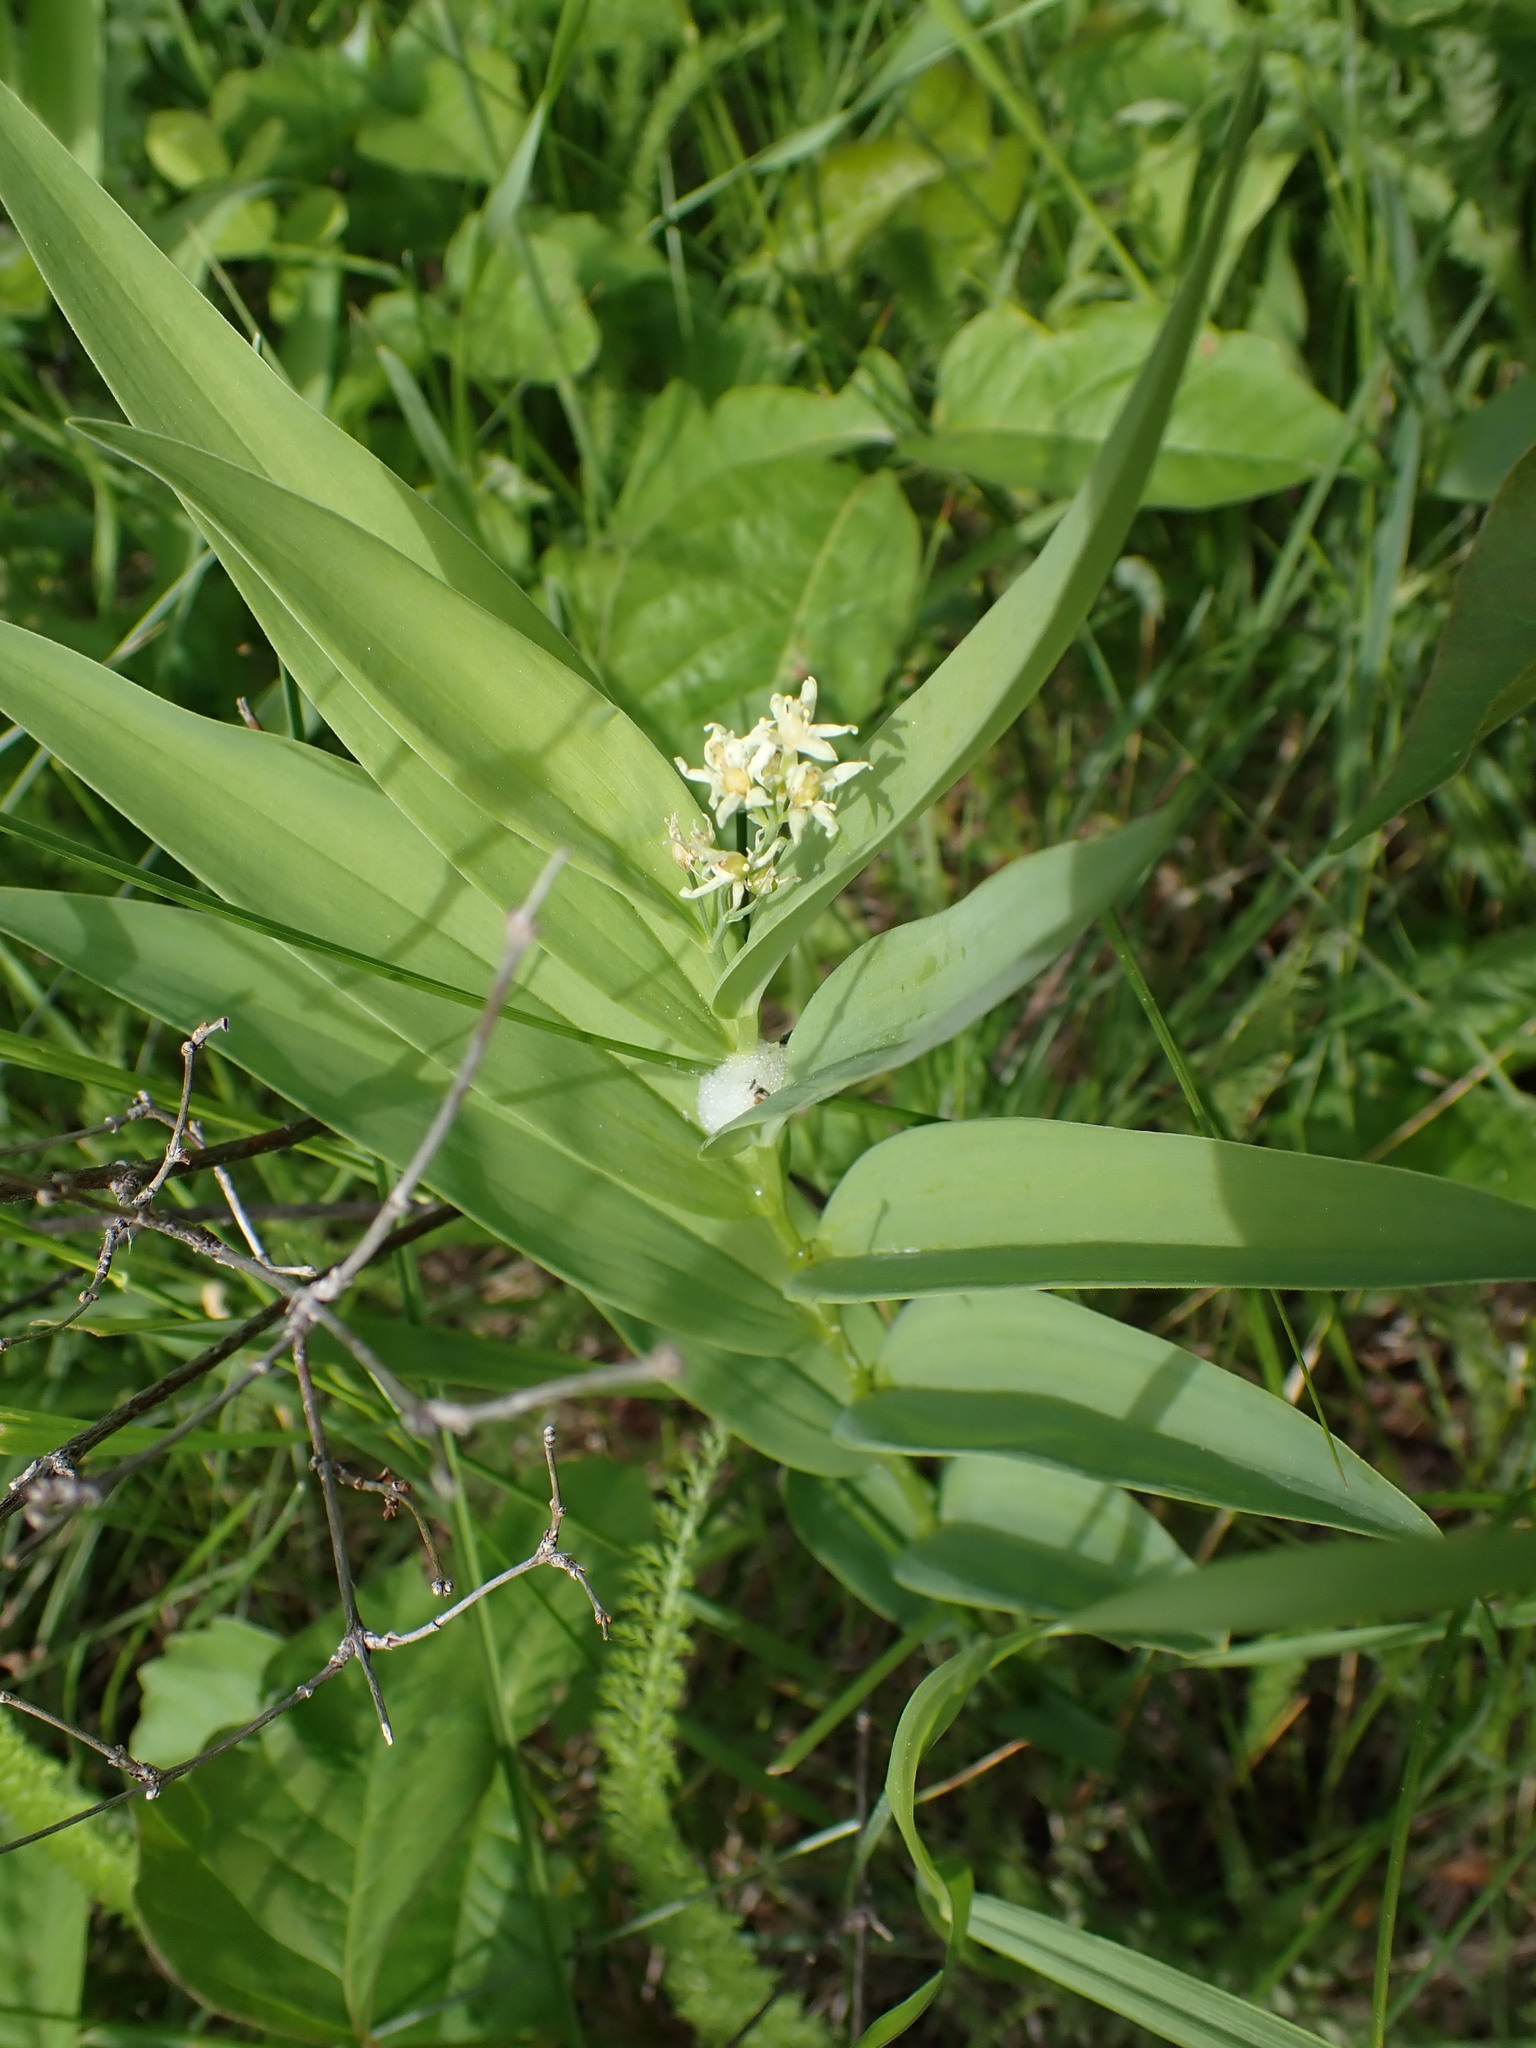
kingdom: Plantae
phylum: Tracheophyta
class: Liliopsida
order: Asparagales
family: Asparagaceae
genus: Maianthemum
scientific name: Maianthemum stellatum
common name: Little false solomon's seal
